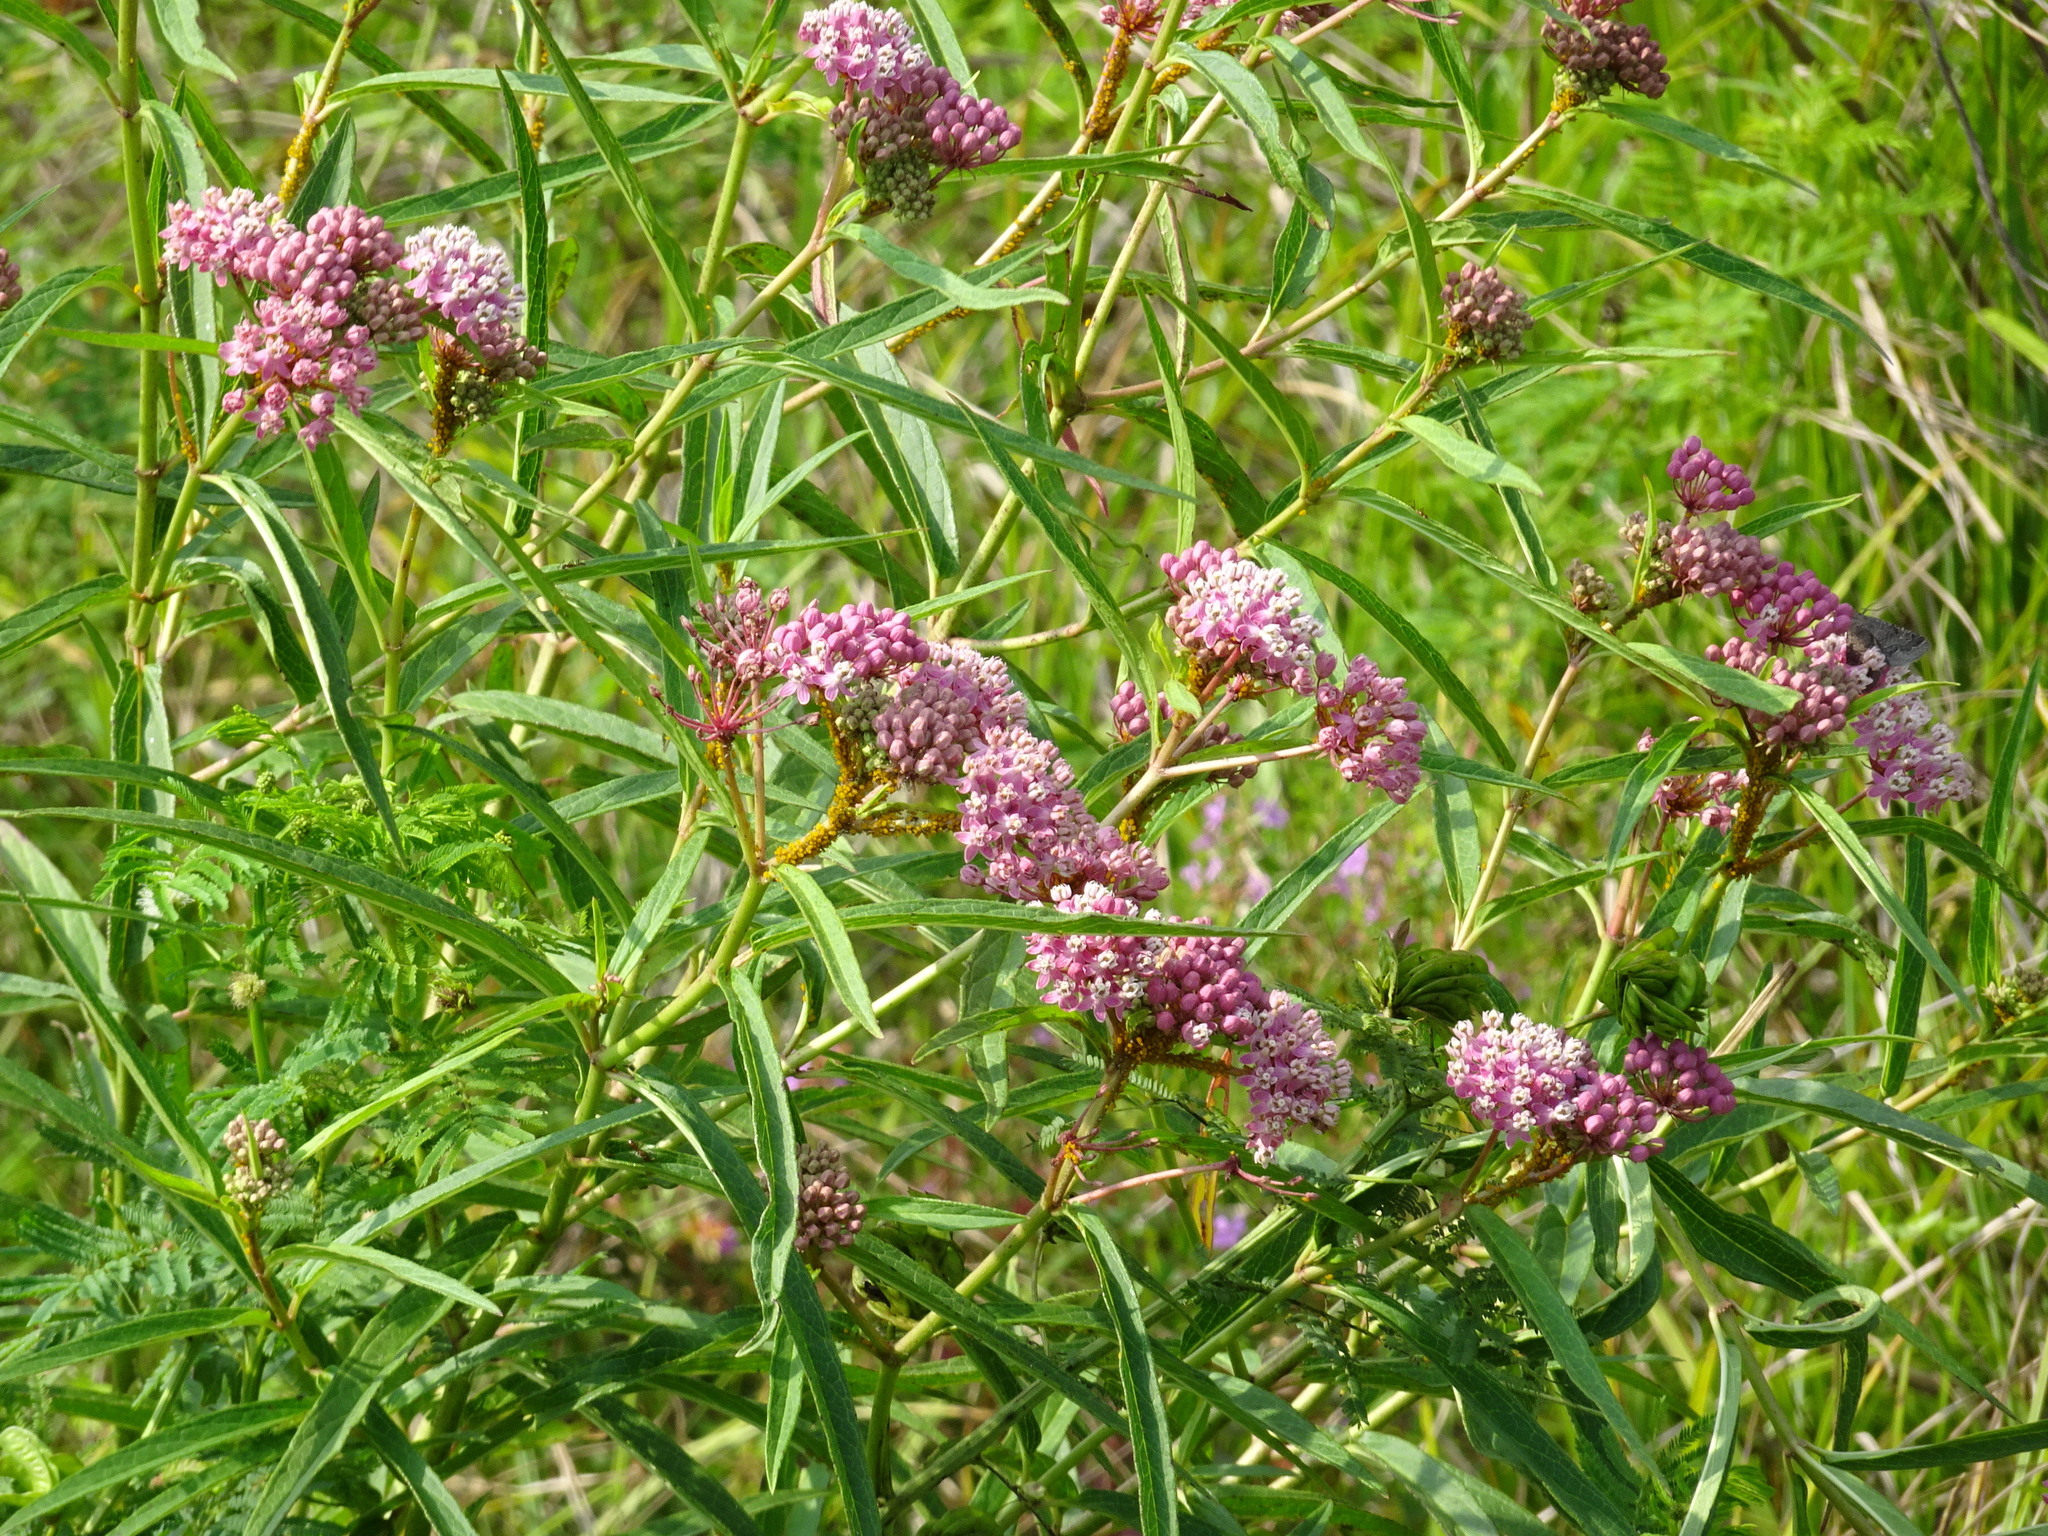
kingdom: Plantae
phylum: Tracheophyta
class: Magnoliopsida
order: Gentianales
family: Apocynaceae
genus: Asclepias
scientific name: Asclepias incarnata
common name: Swamp milkweed
